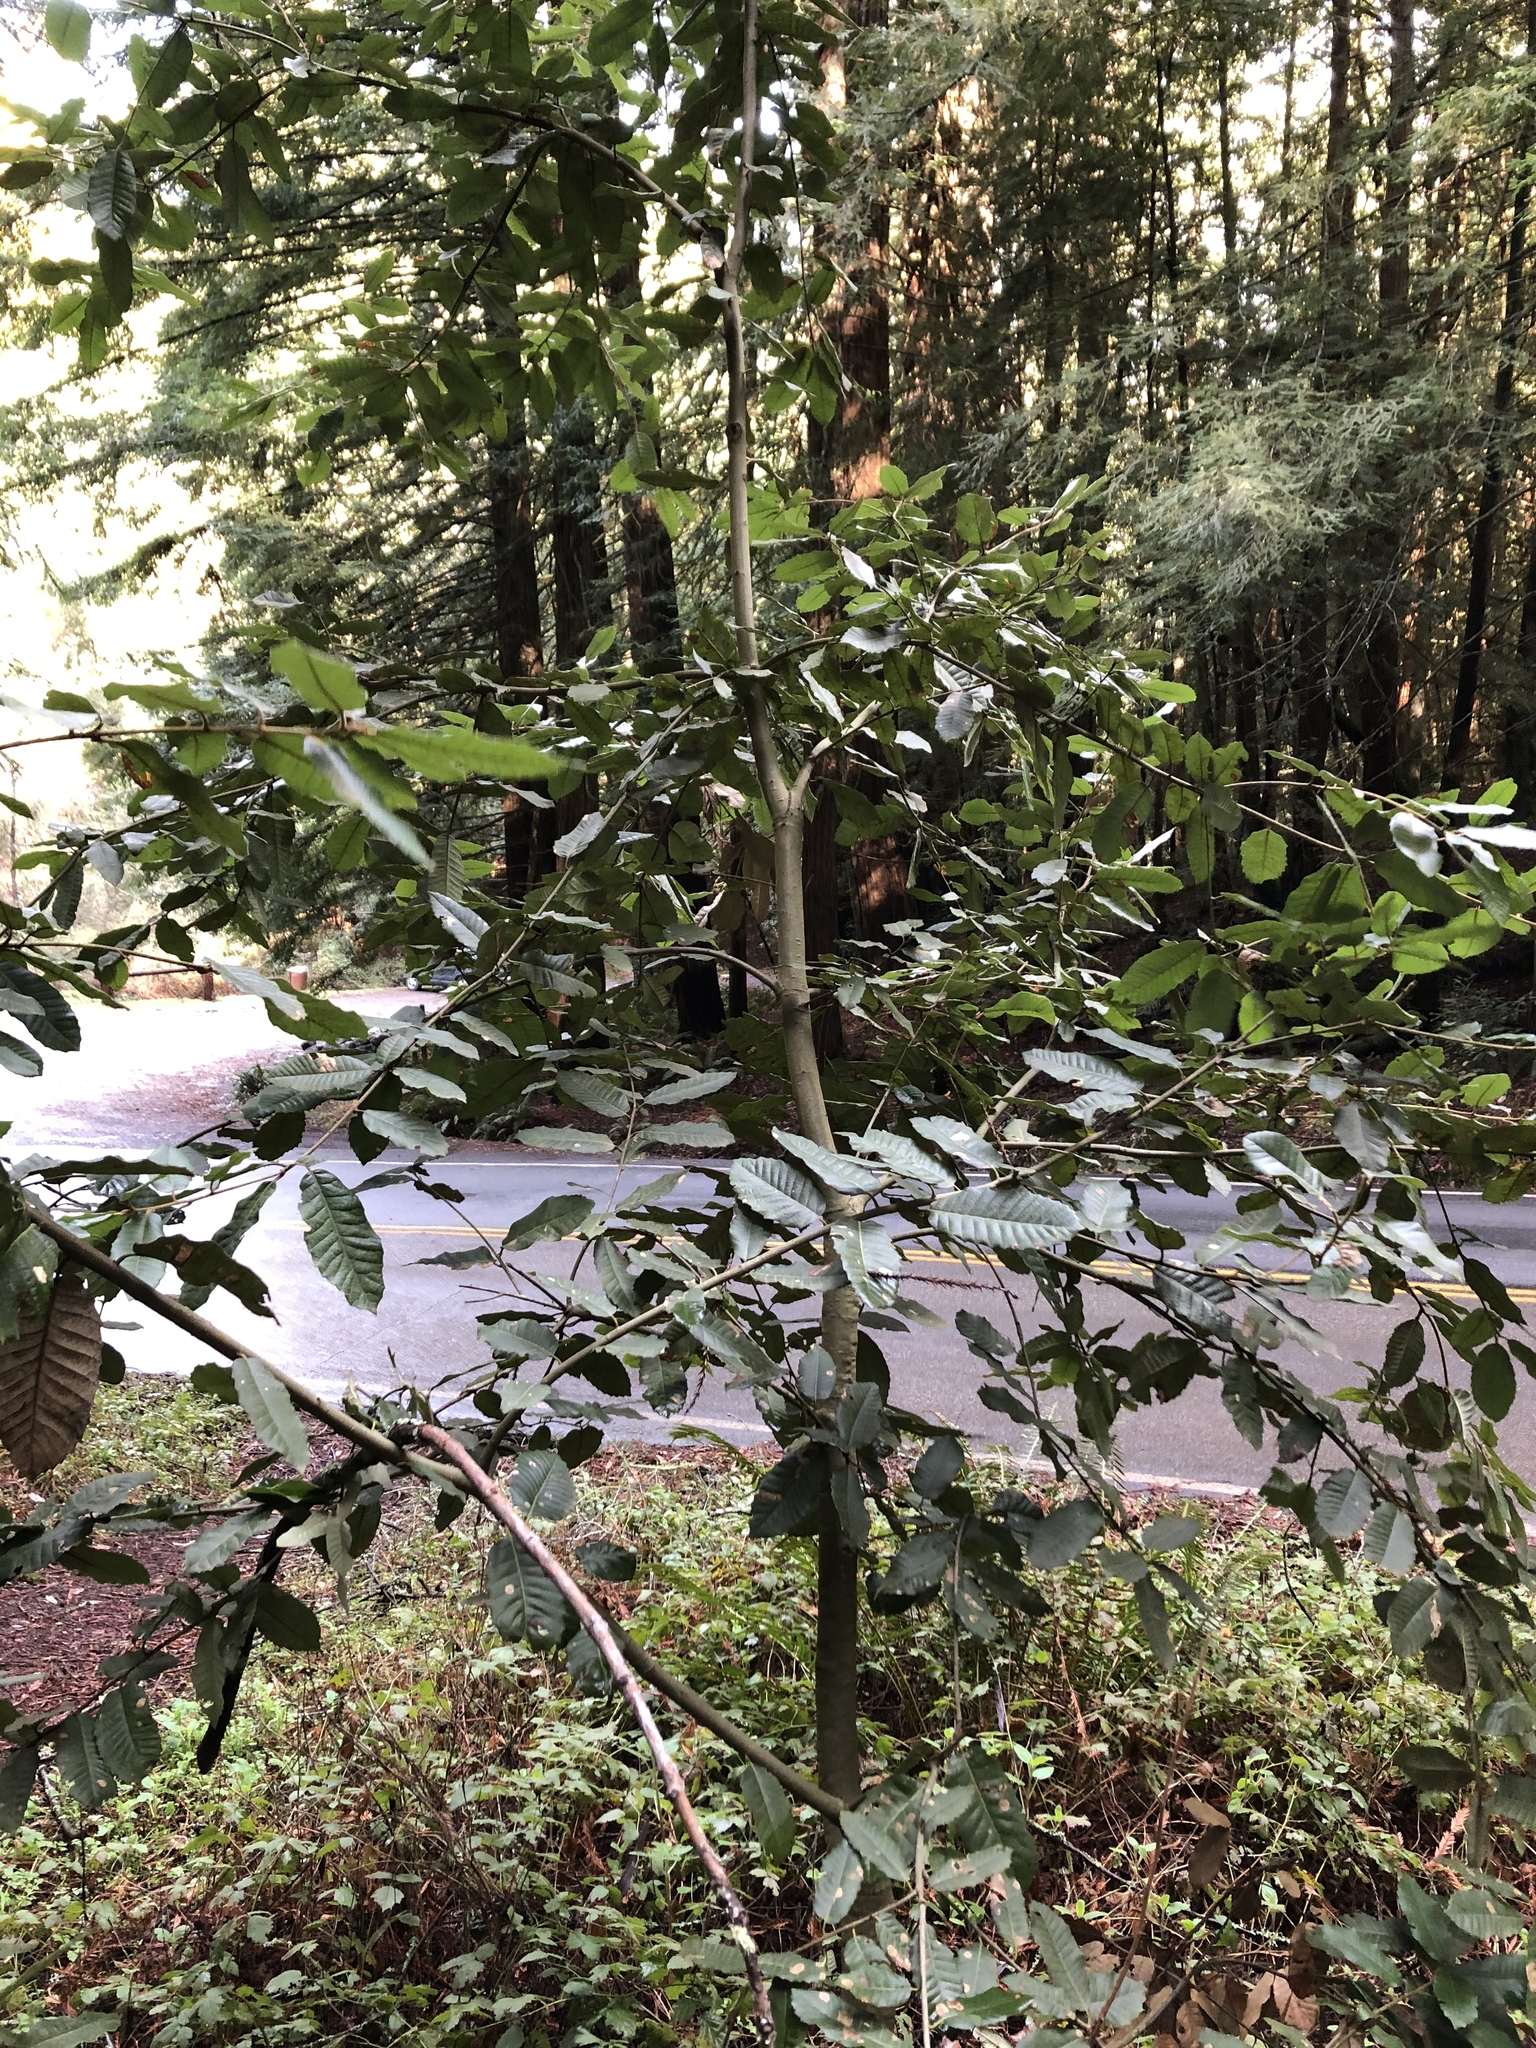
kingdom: Plantae
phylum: Tracheophyta
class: Magnoliopsida
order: Fagales
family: Fagaceae
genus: Notholithocarpus
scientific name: Notholithocarpus densiflorus
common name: Tan bark oak
